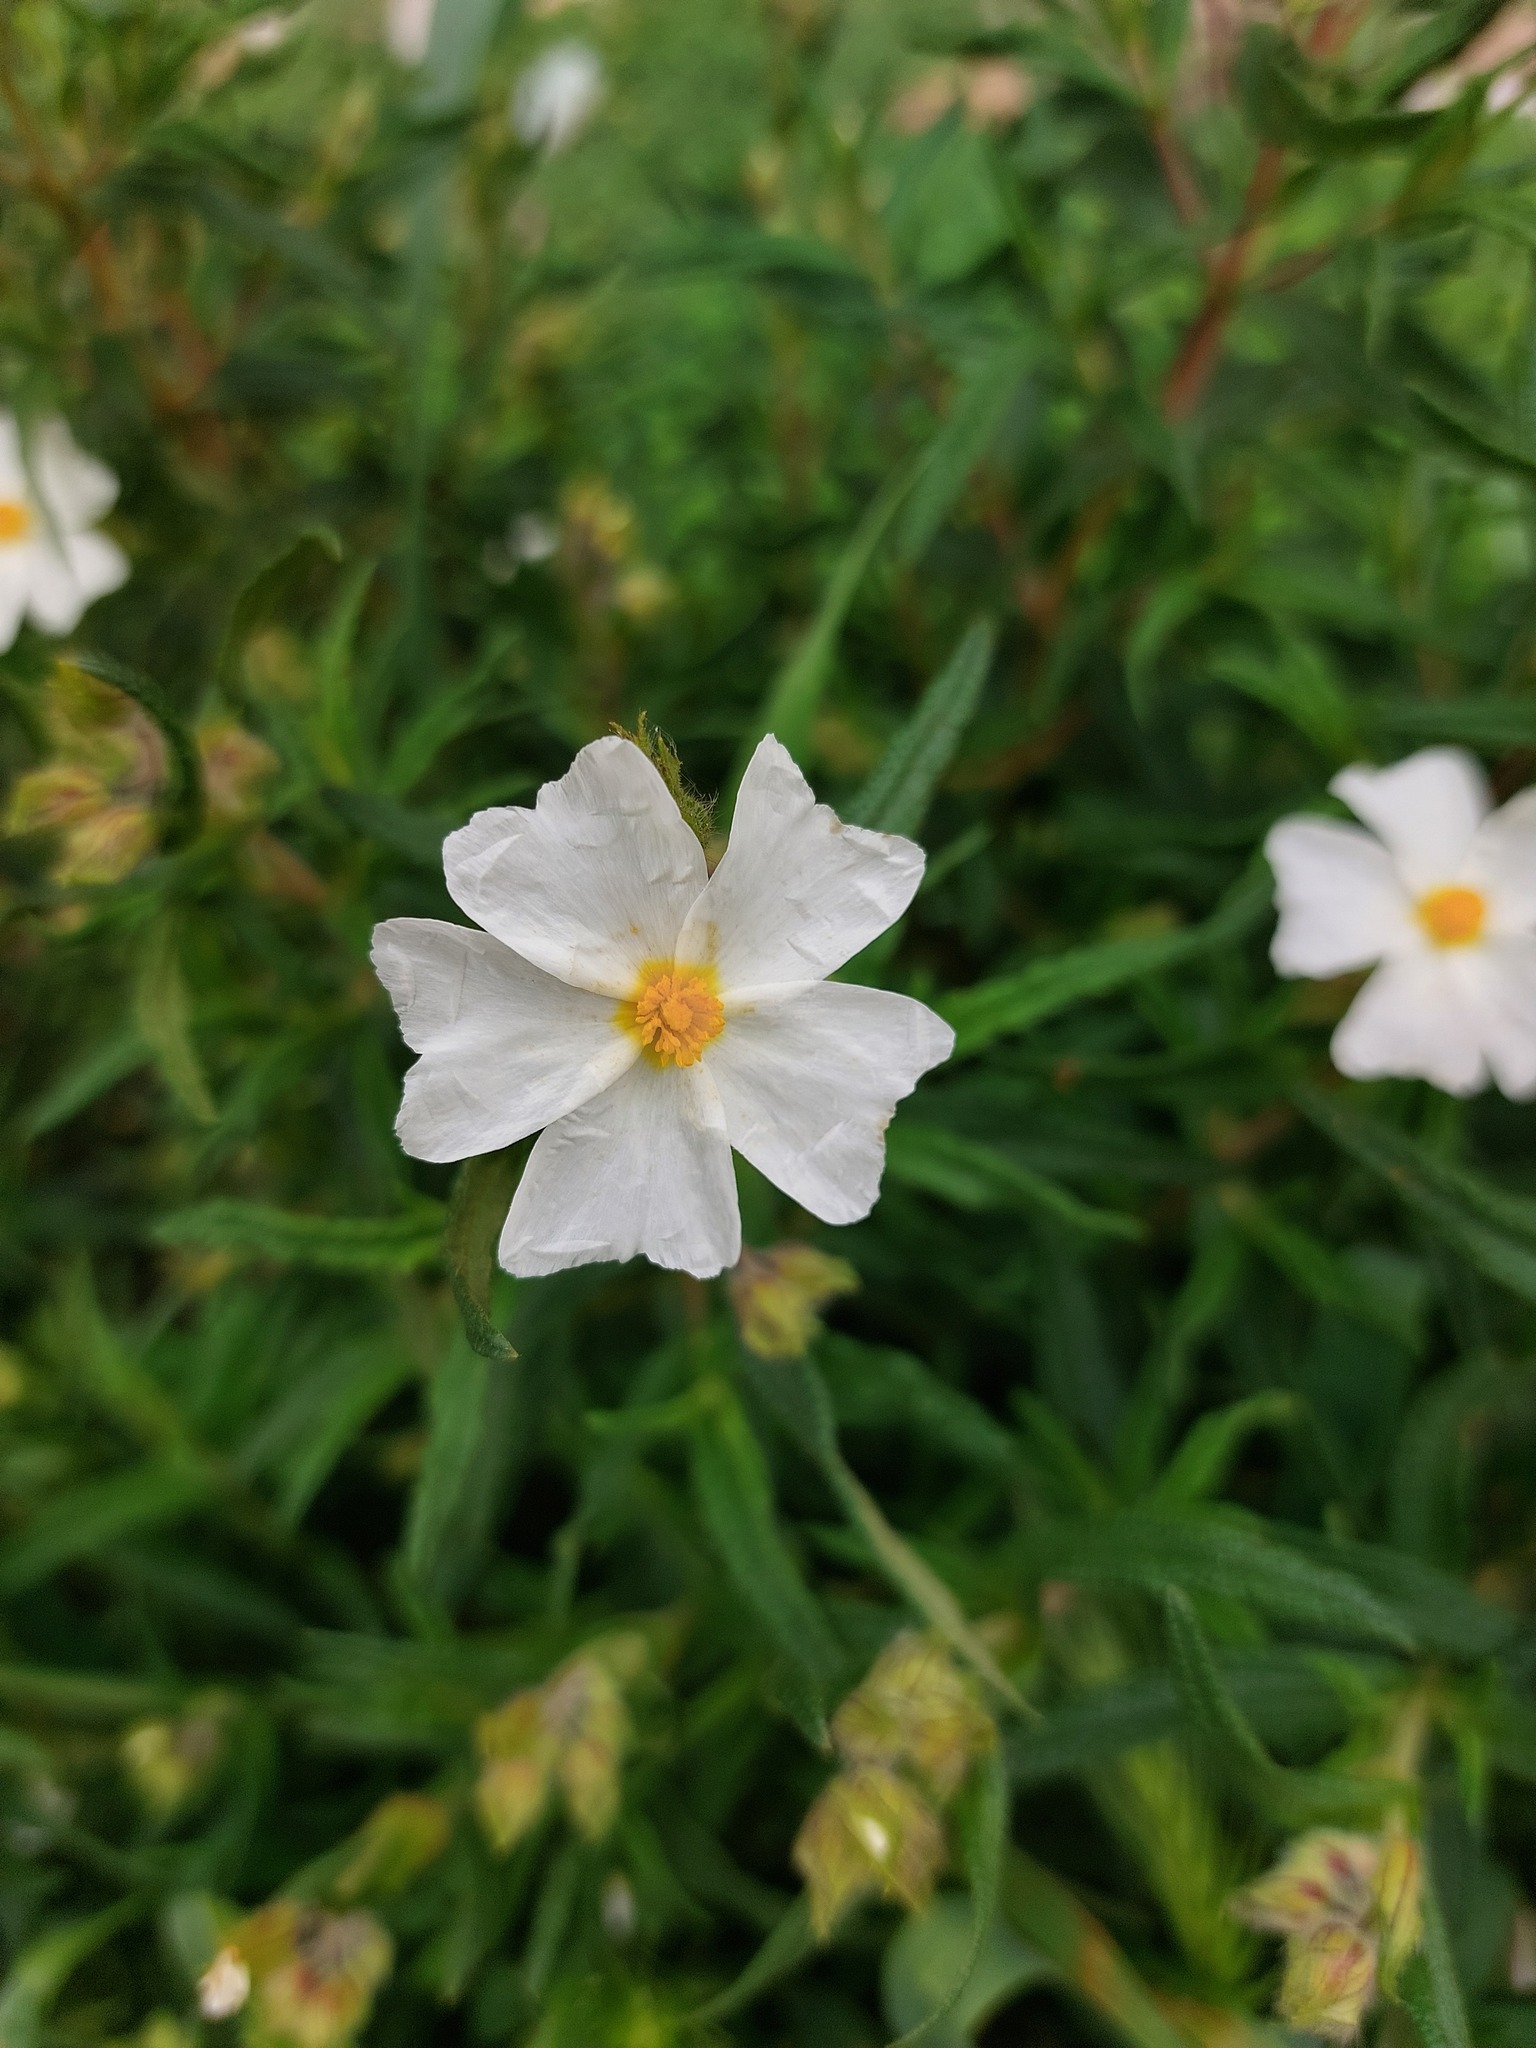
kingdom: Plantae
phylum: Tracheophyta
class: Magnoliopsida
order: Malvales
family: Cistaceae
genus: Cistus
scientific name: Cistus monspeliensis
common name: Montpelier cistus
